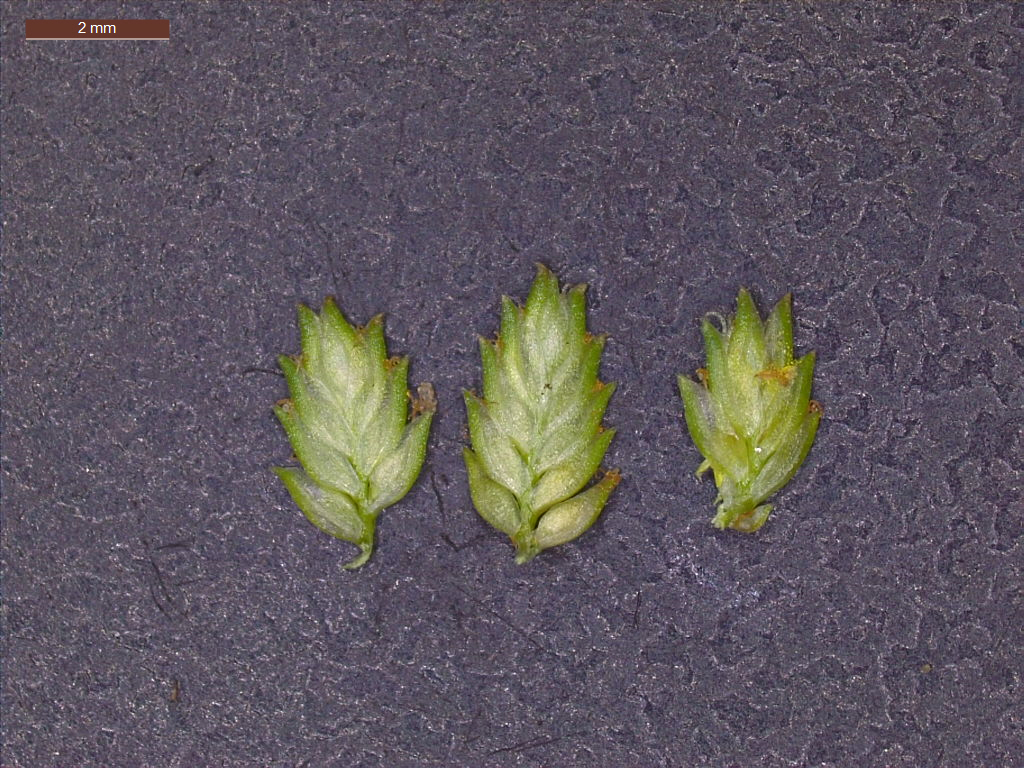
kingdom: Plantae
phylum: Tracheophyta
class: Liliopsida
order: Poales
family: Cyperaceae
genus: Cyperus
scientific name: Cyperus acuminatus
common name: Short-pointed cyperus
